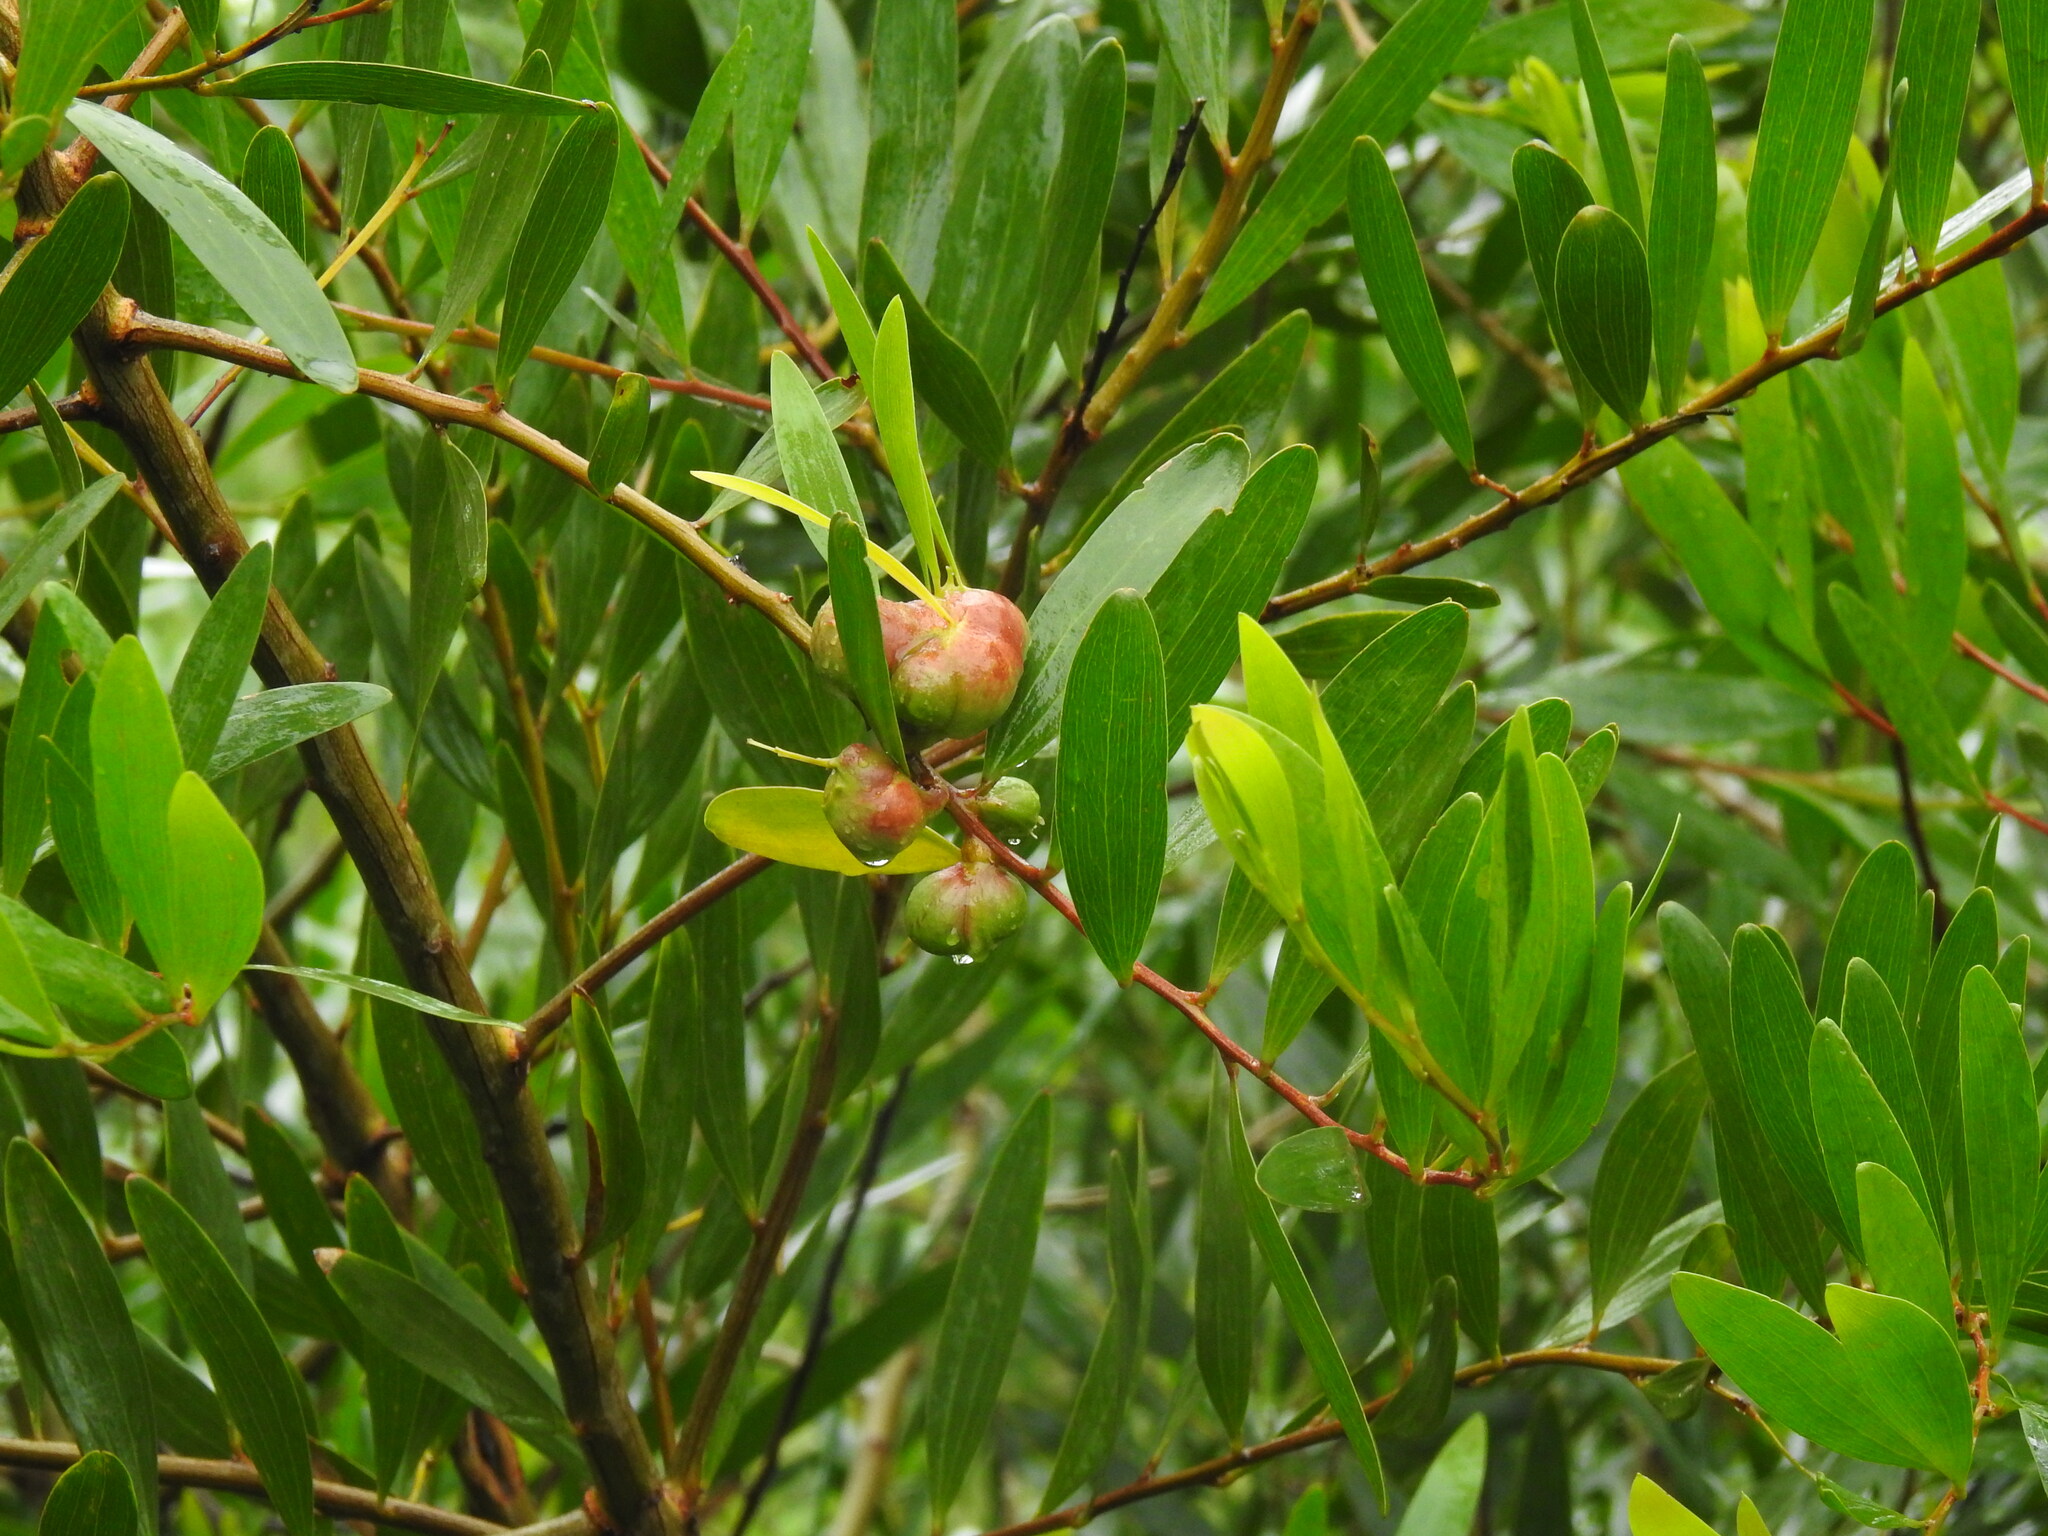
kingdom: Plantae
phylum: Tracheophyta
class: Magnoliopsida
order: Fabales
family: Fabaceae
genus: Acacia
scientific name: Acacia longifolia
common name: Sydney golden wattle
